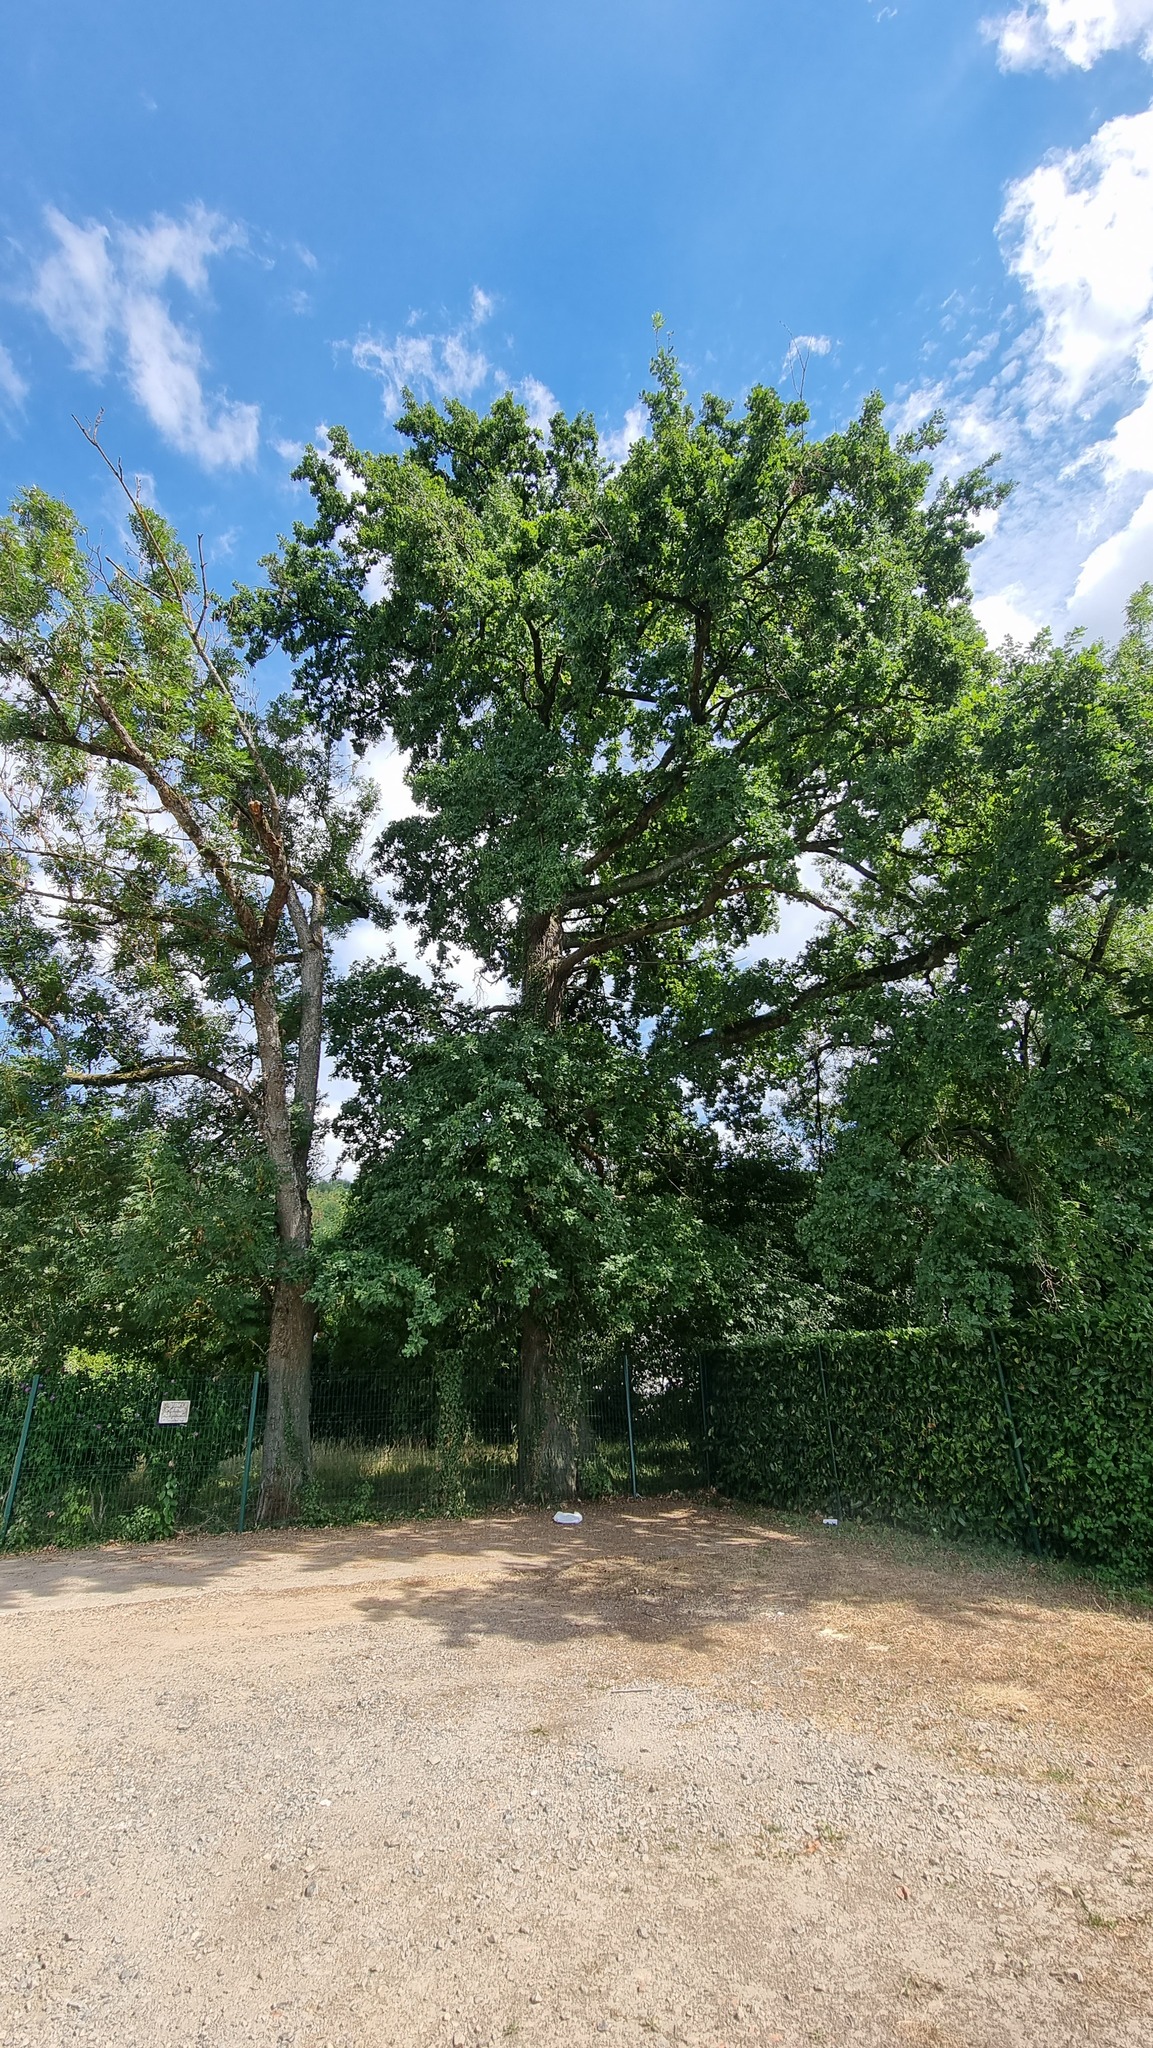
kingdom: Plantae
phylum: Tracheophyta
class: Magnoliopsida
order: Fagales
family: Fagaceae
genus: Quercus
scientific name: Quercus robur
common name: Pedunculate oak
